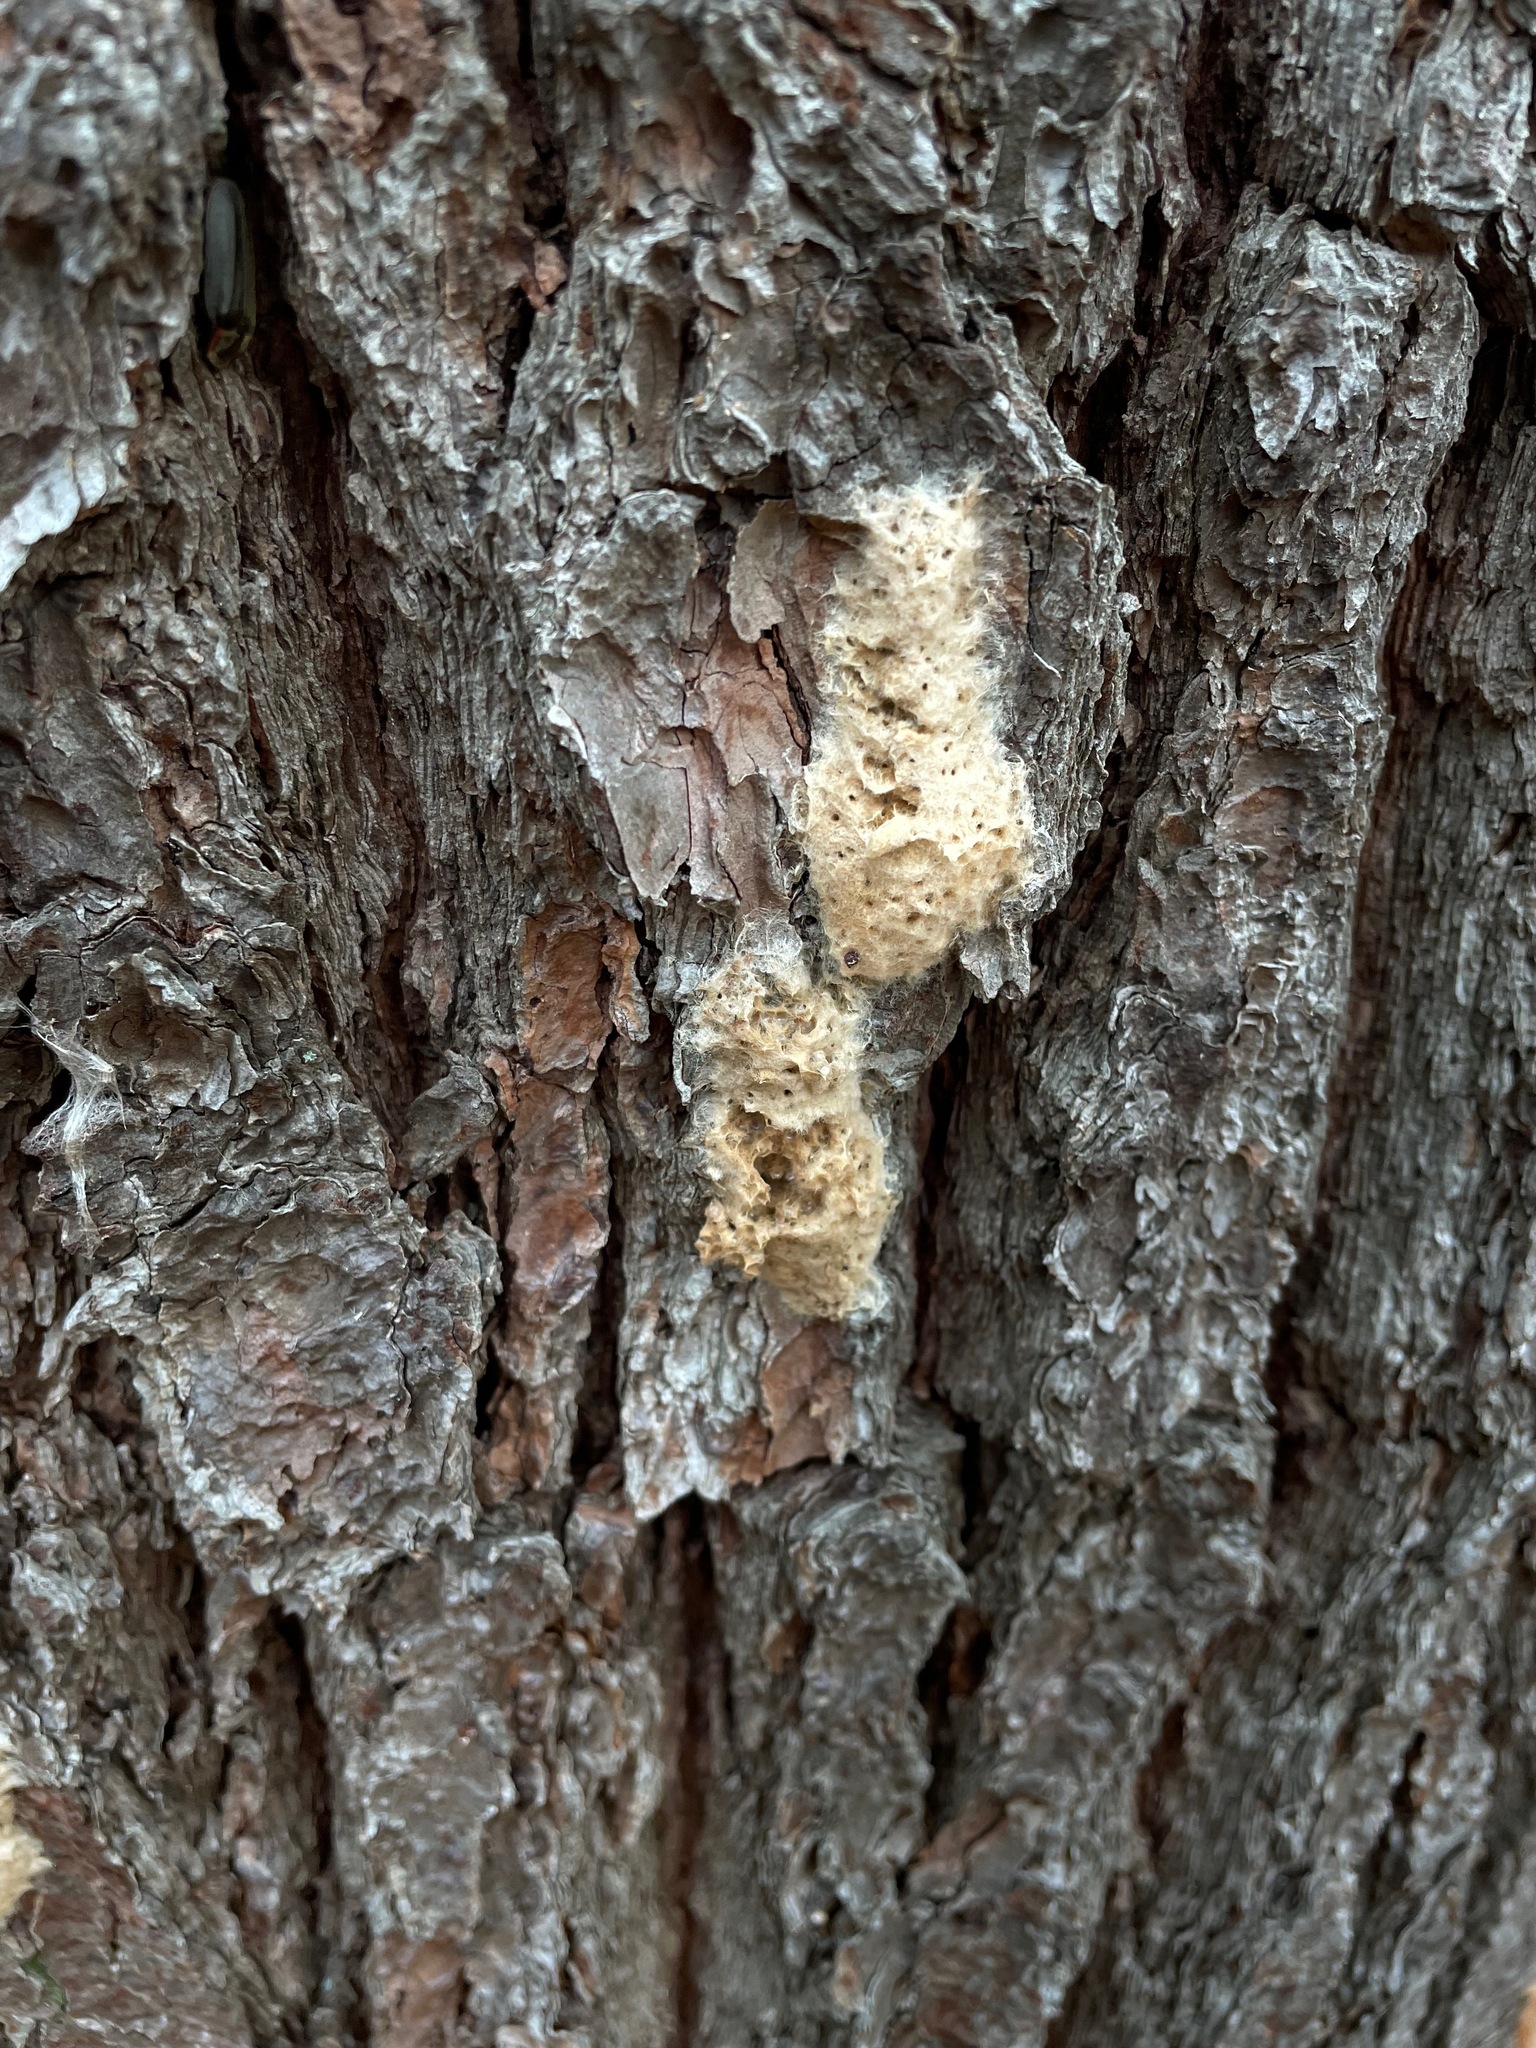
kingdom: Animalia
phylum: Arthropoda
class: Insecta
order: Lepidoptera
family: Erebidae
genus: Lymantria
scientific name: Lymantria dispar
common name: Gypsy moth
